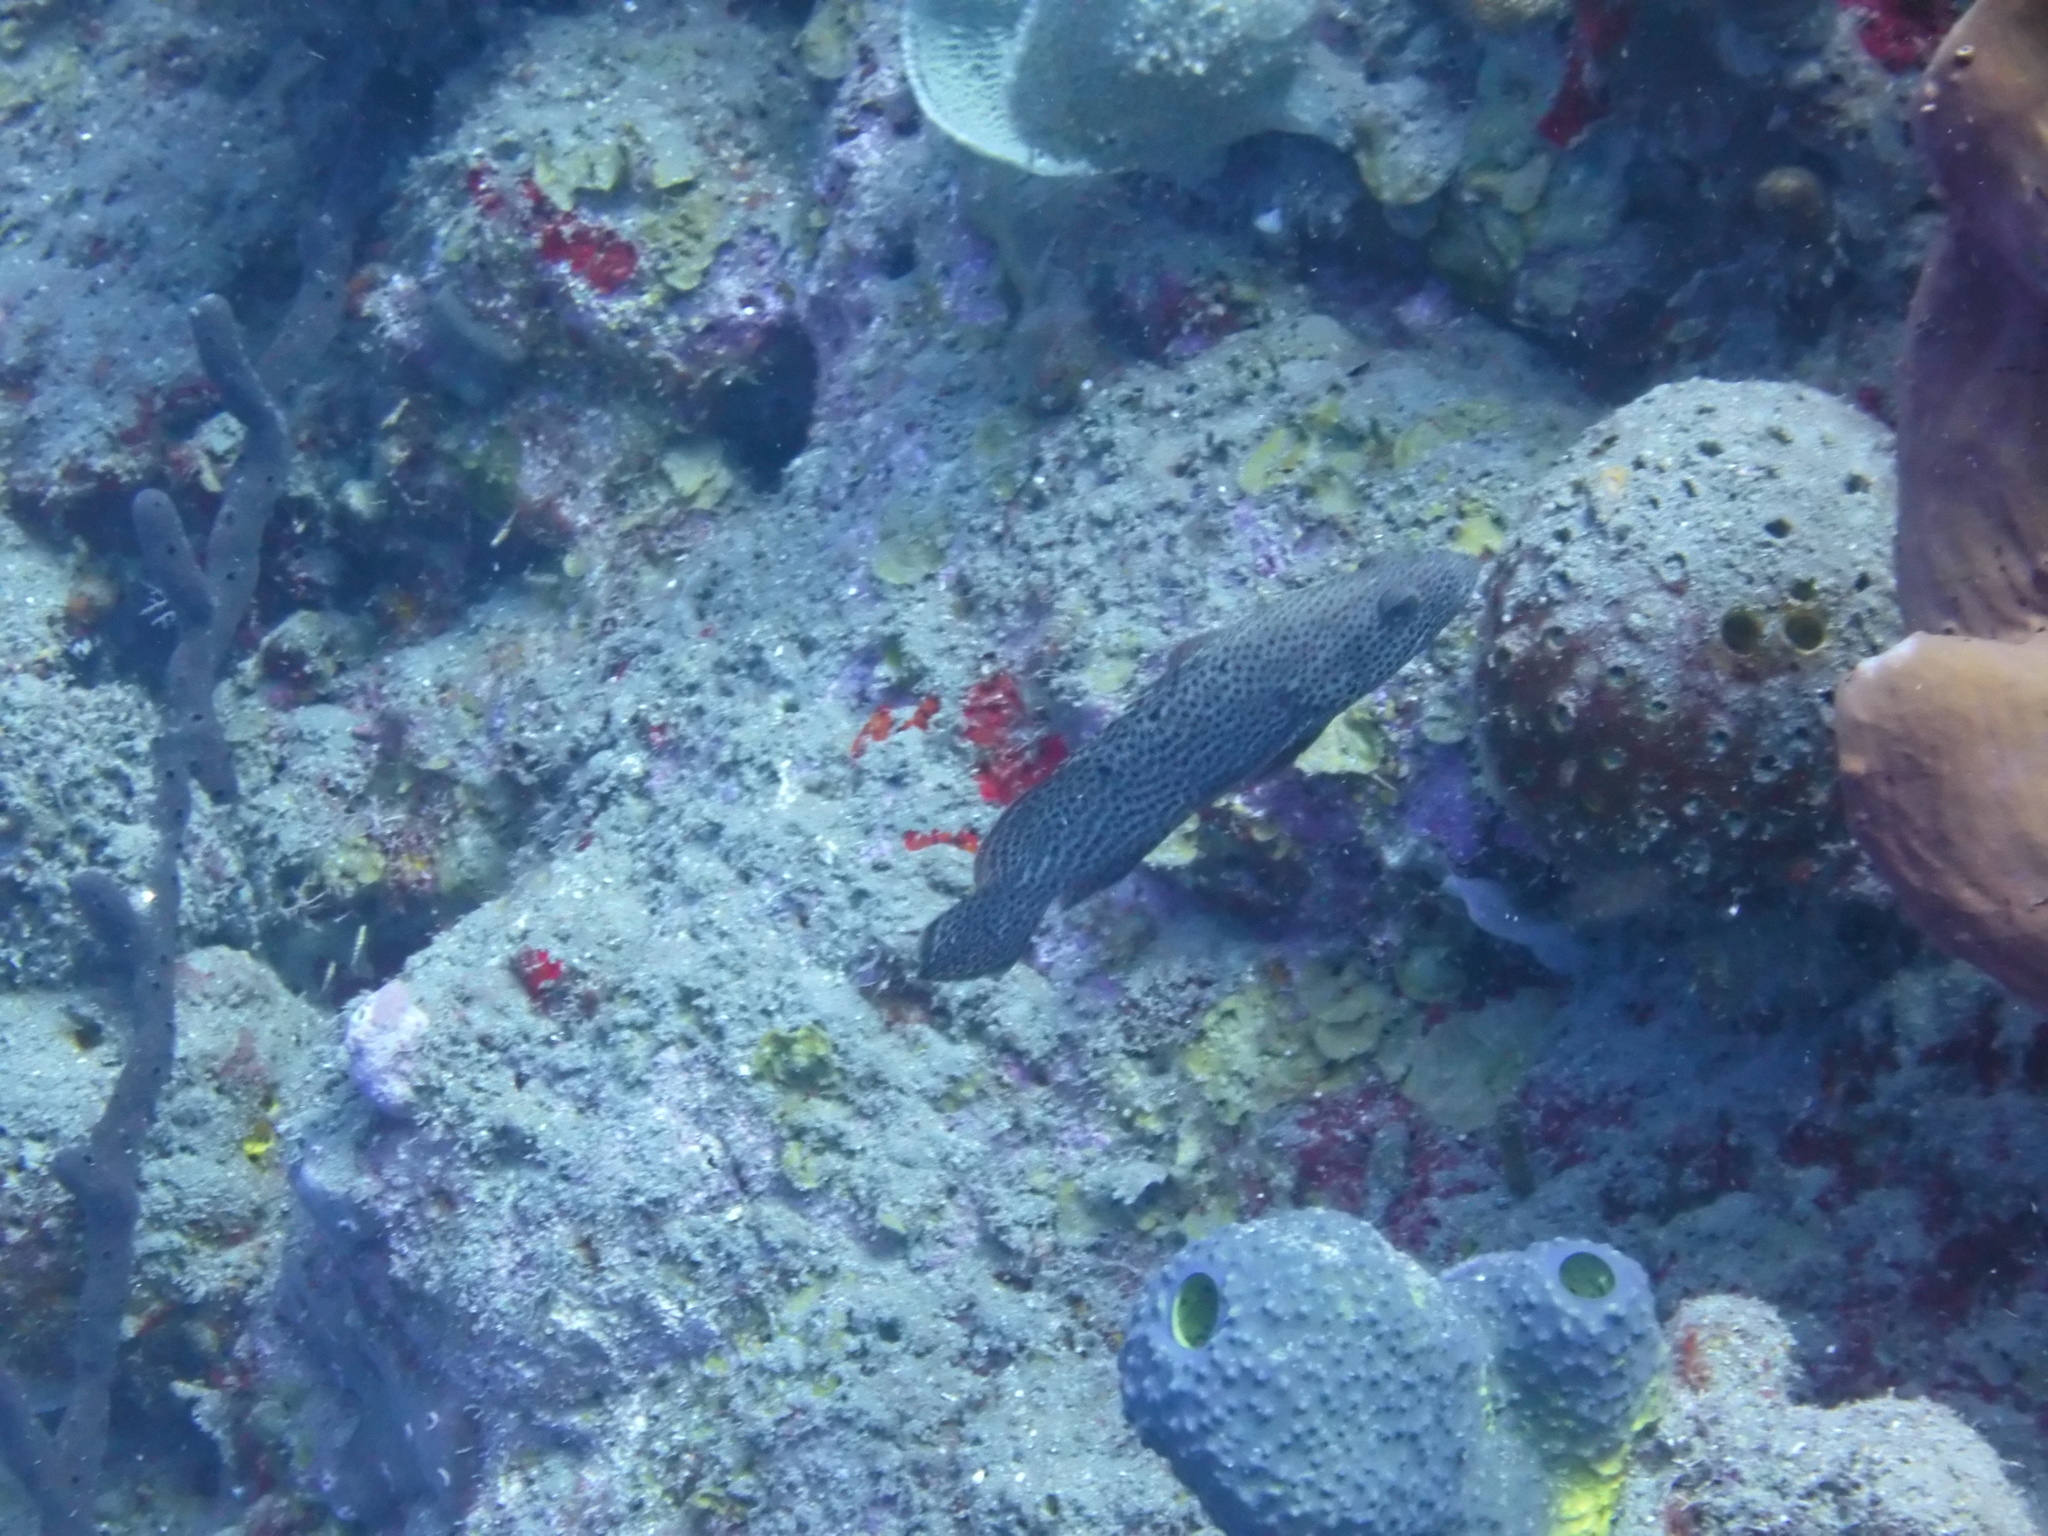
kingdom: Animalia
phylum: Chordata
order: Perciformes
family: Serranidae
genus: Cephalopholis
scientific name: Cephalopholis cruentata
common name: Graysby
